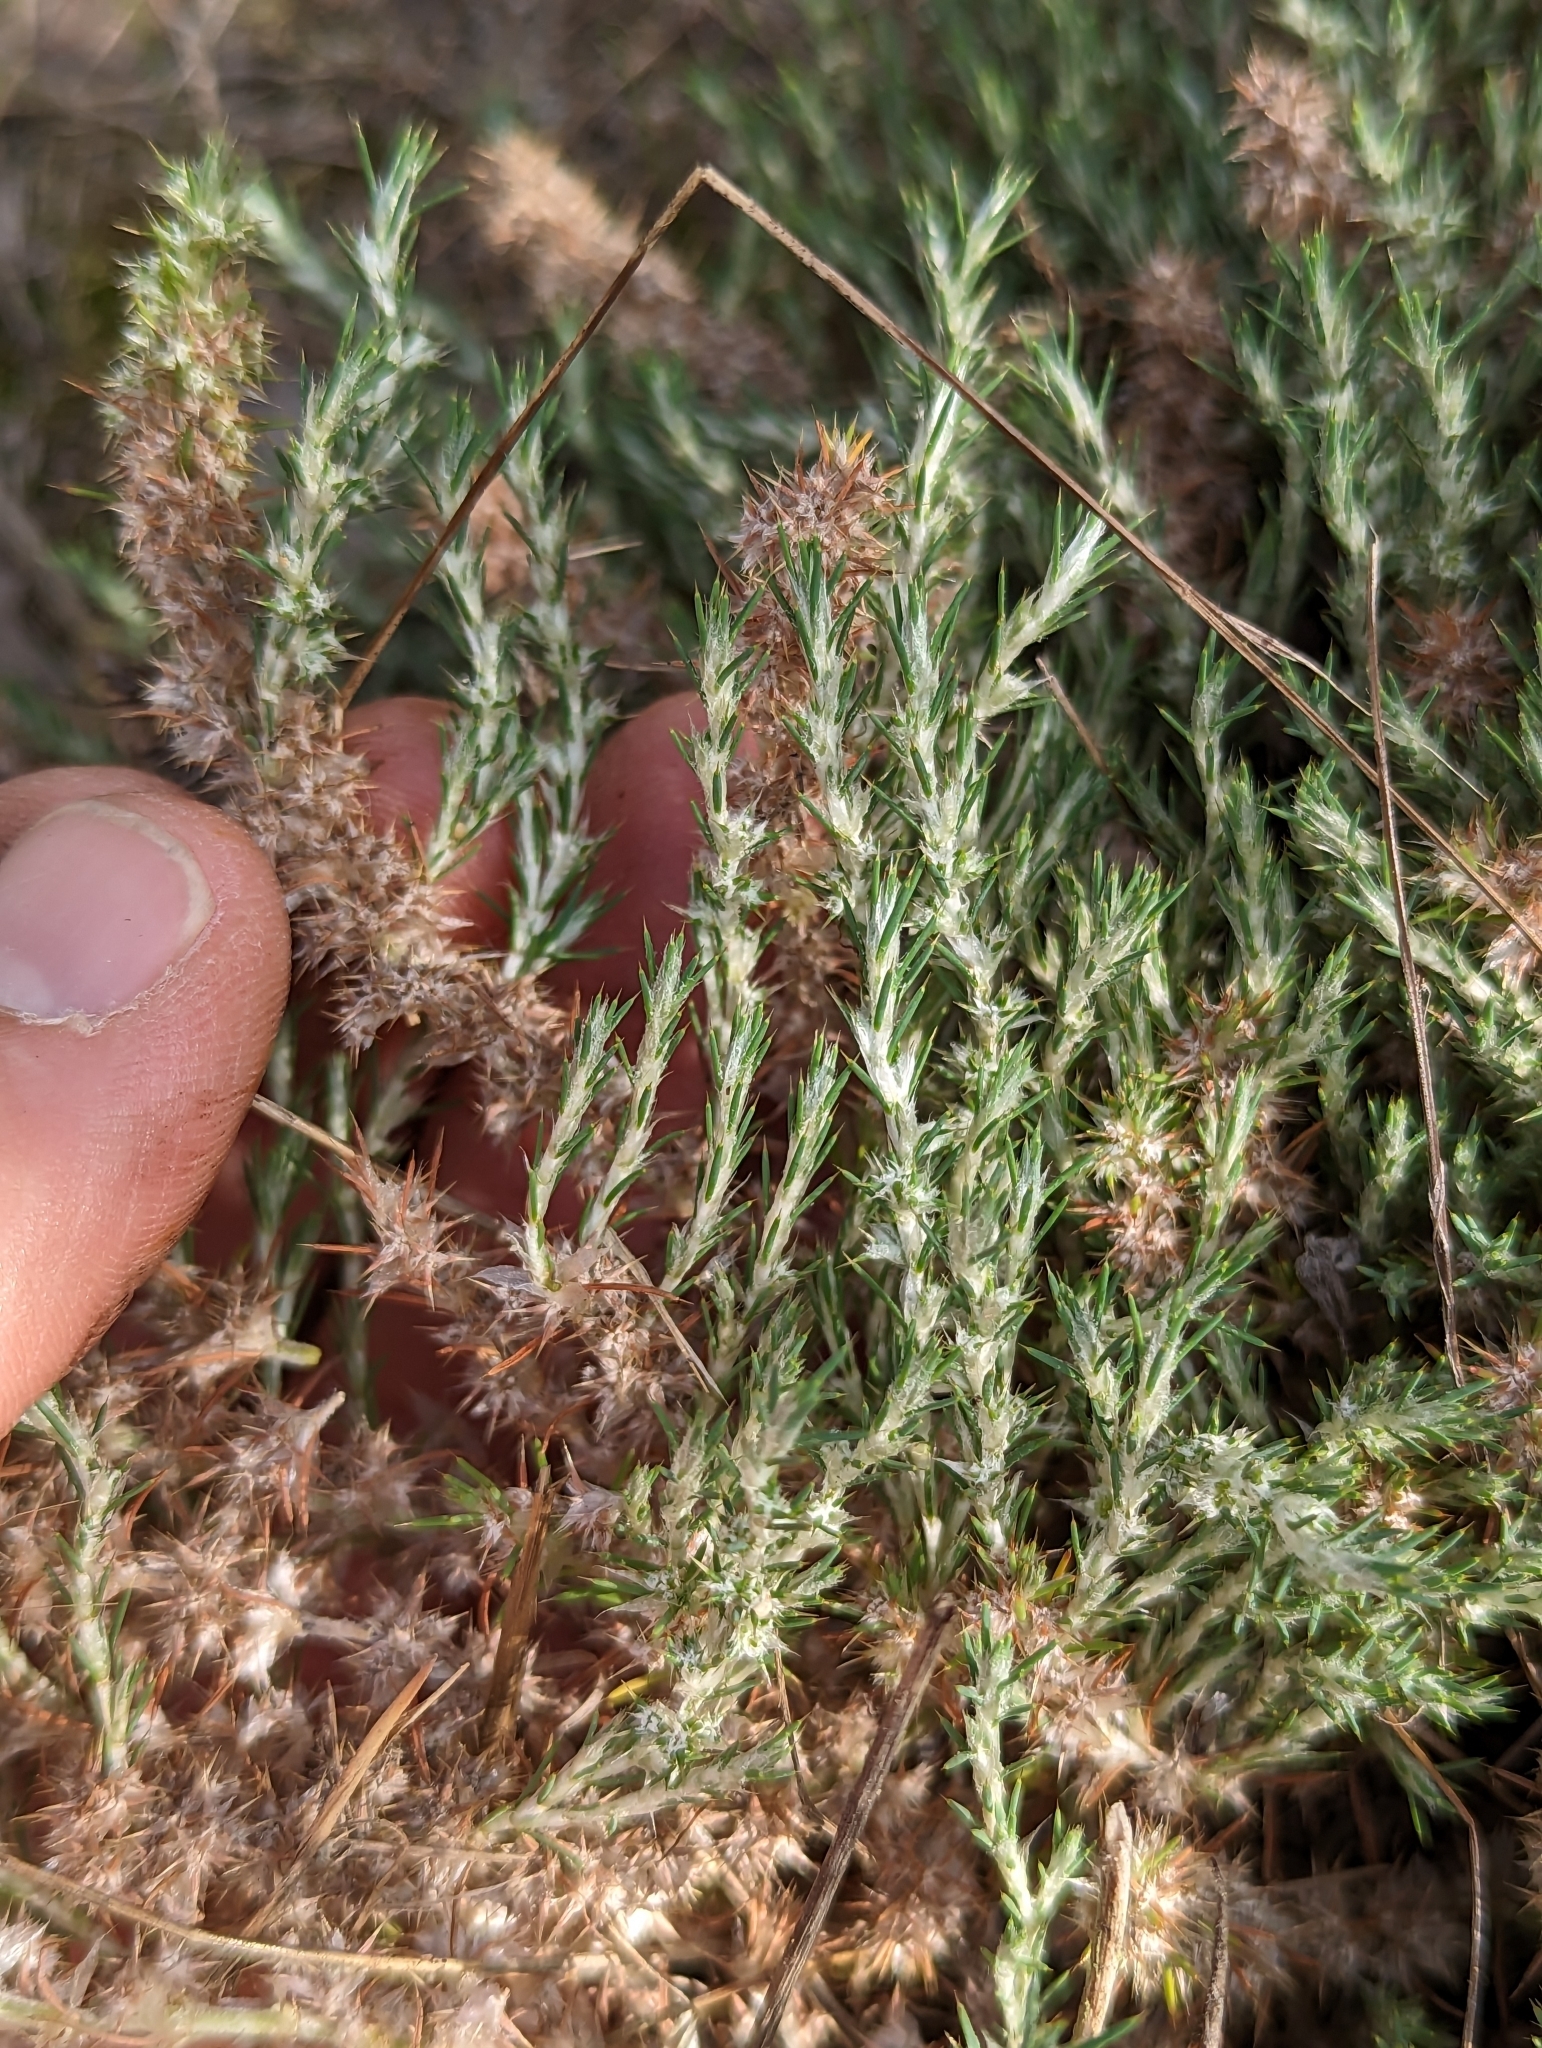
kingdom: Plantae
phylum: Tracheophyta
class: Magnoliopsida
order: Caryophyllales
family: Caryophyllaceae
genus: Cardionema
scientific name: Cardionema ramosissima
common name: Sandcarpet
